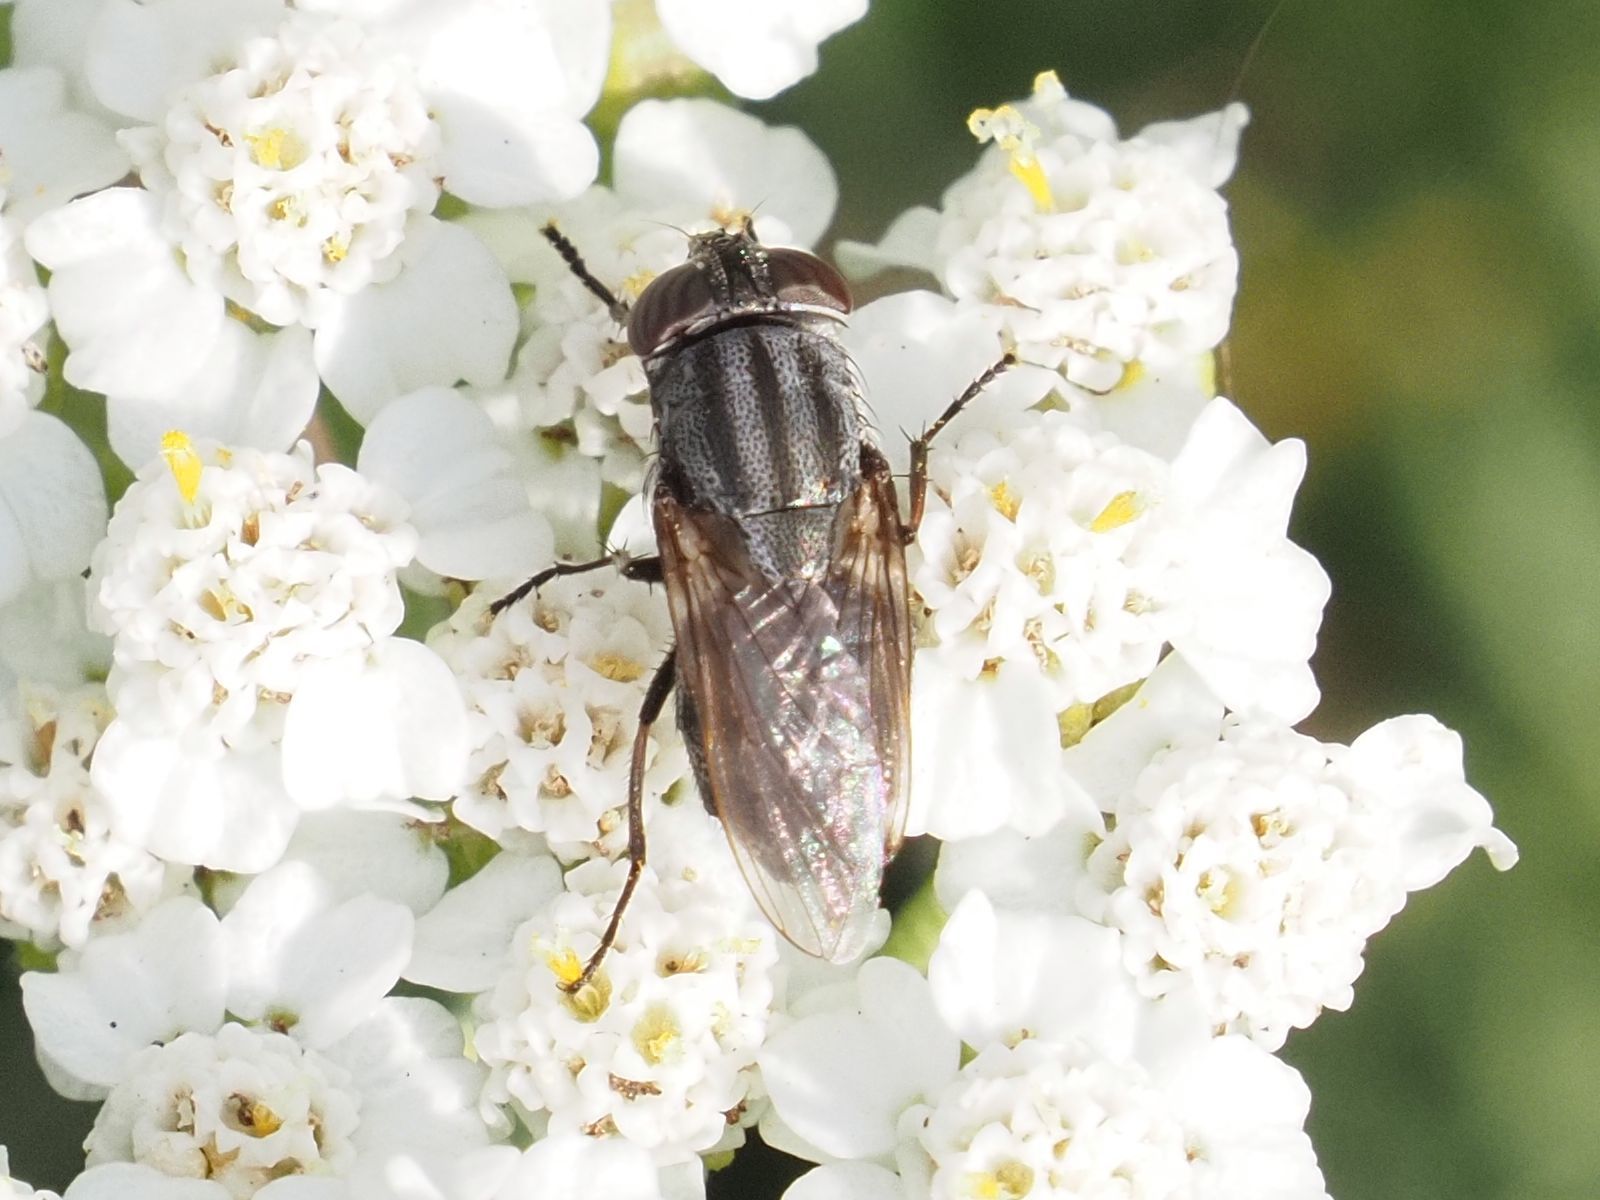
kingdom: Animalia
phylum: Arthropoda
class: Insecta
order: Diptera
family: Calliphoridae
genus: Stomorhina
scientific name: Stomorhina lunata
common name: Locust blowfly
